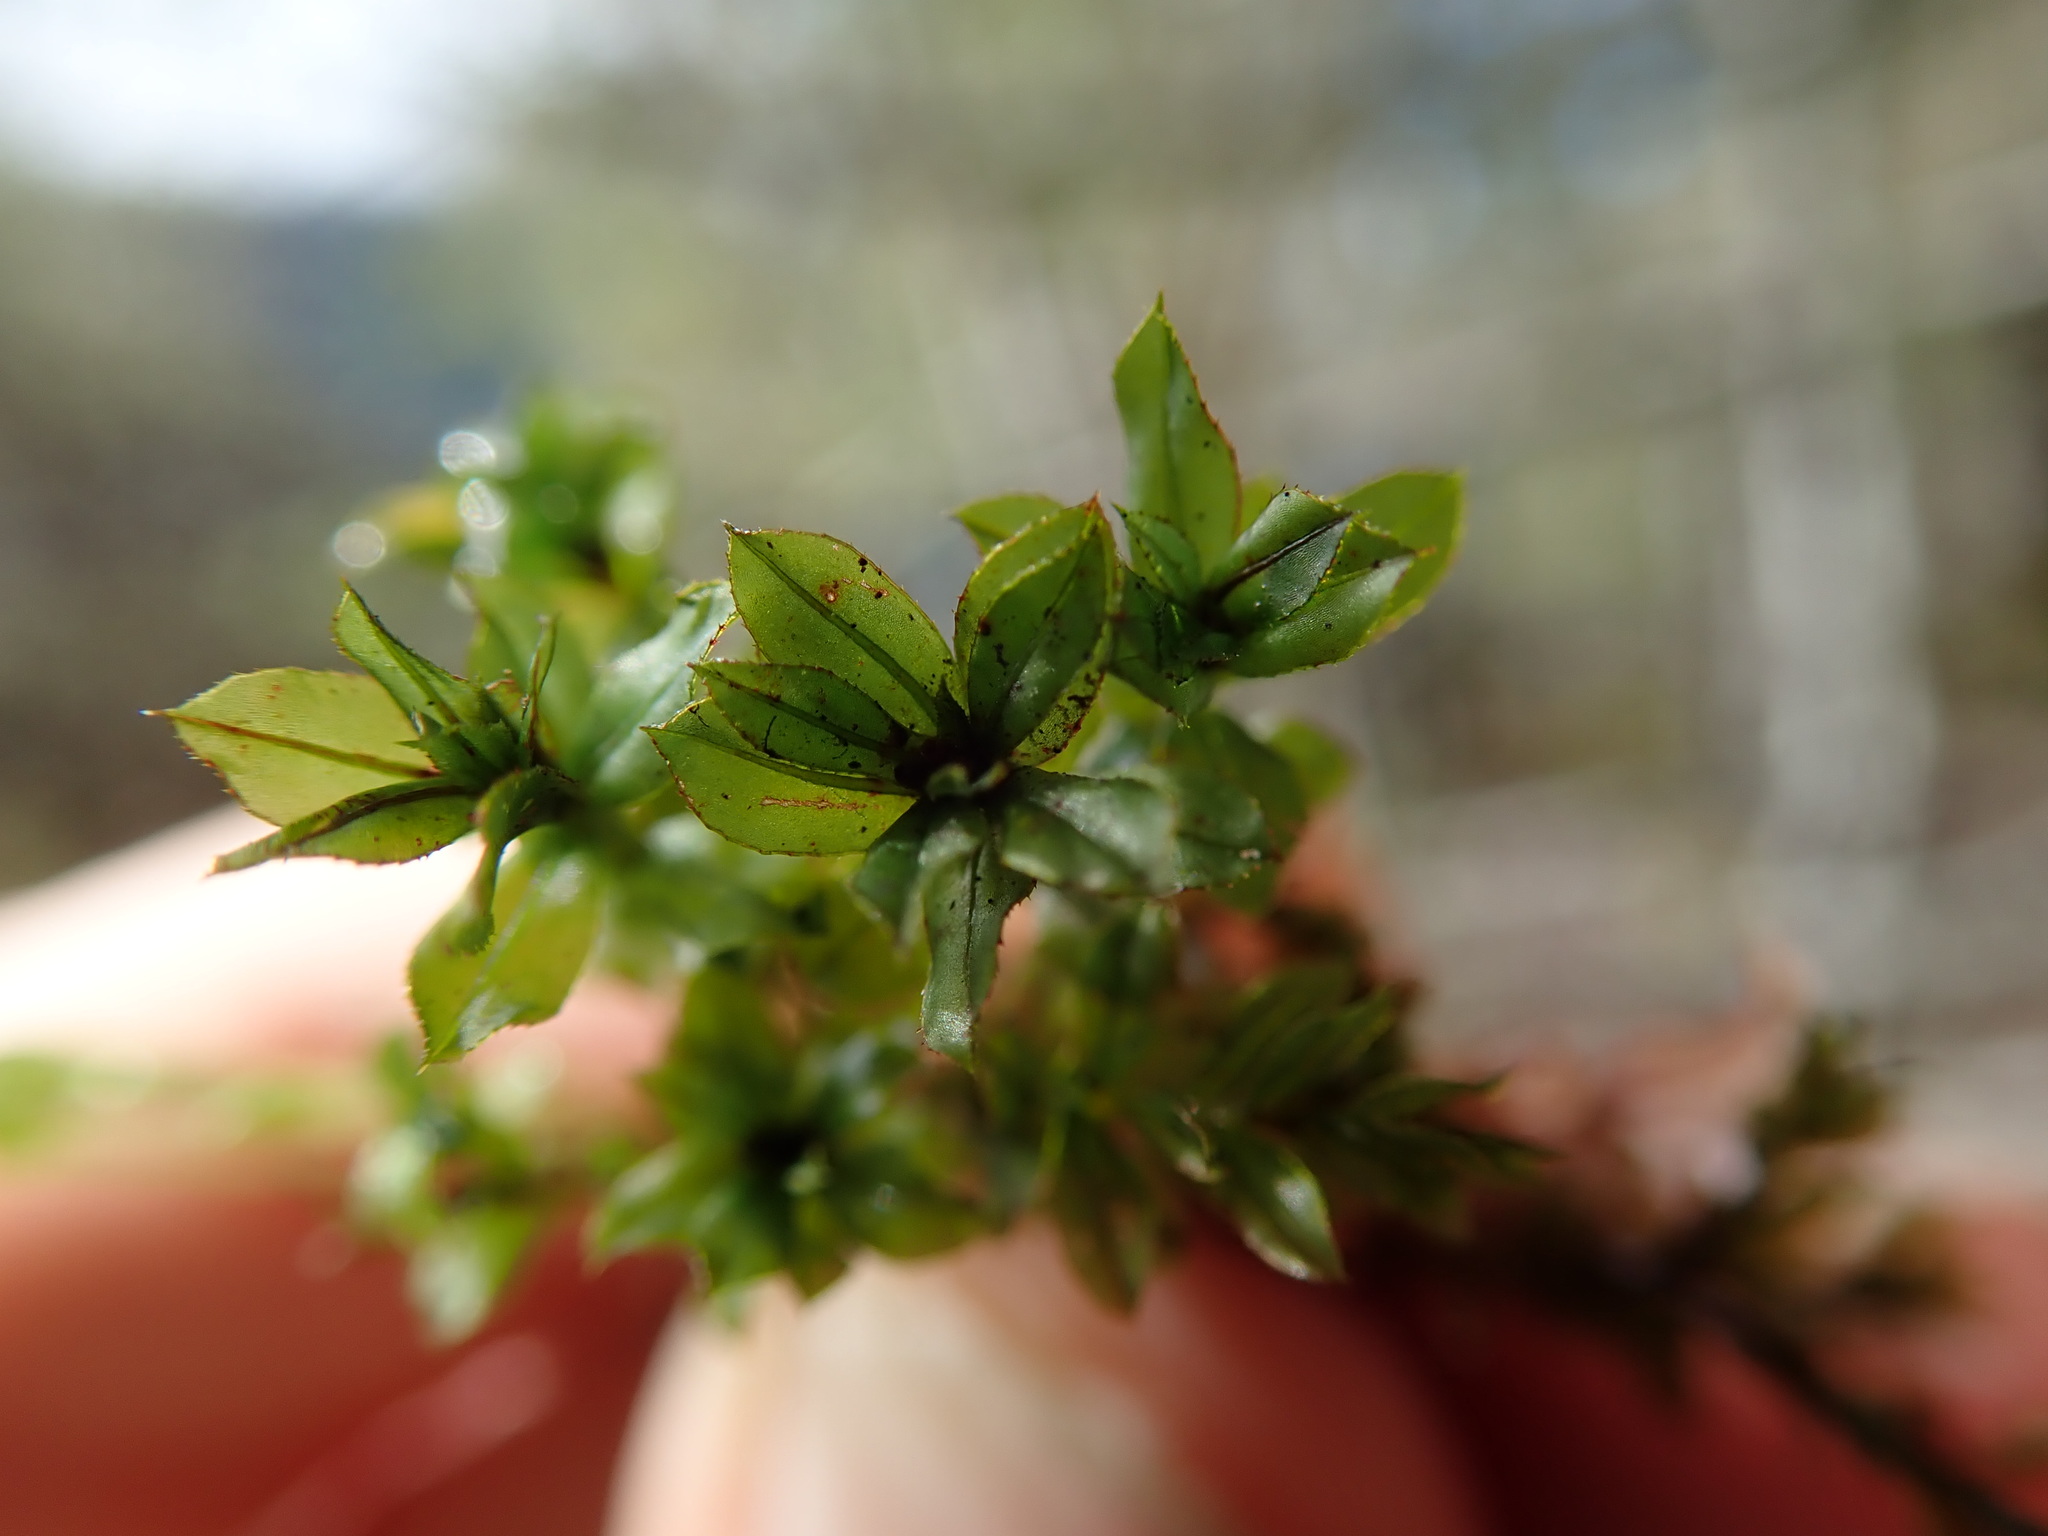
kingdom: Plantae
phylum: Bryophyta
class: Bryopsida
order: Bryales
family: Mniaceae
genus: Mnium
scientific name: Mnium spinulosum
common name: Red-mouthed leafy moss
